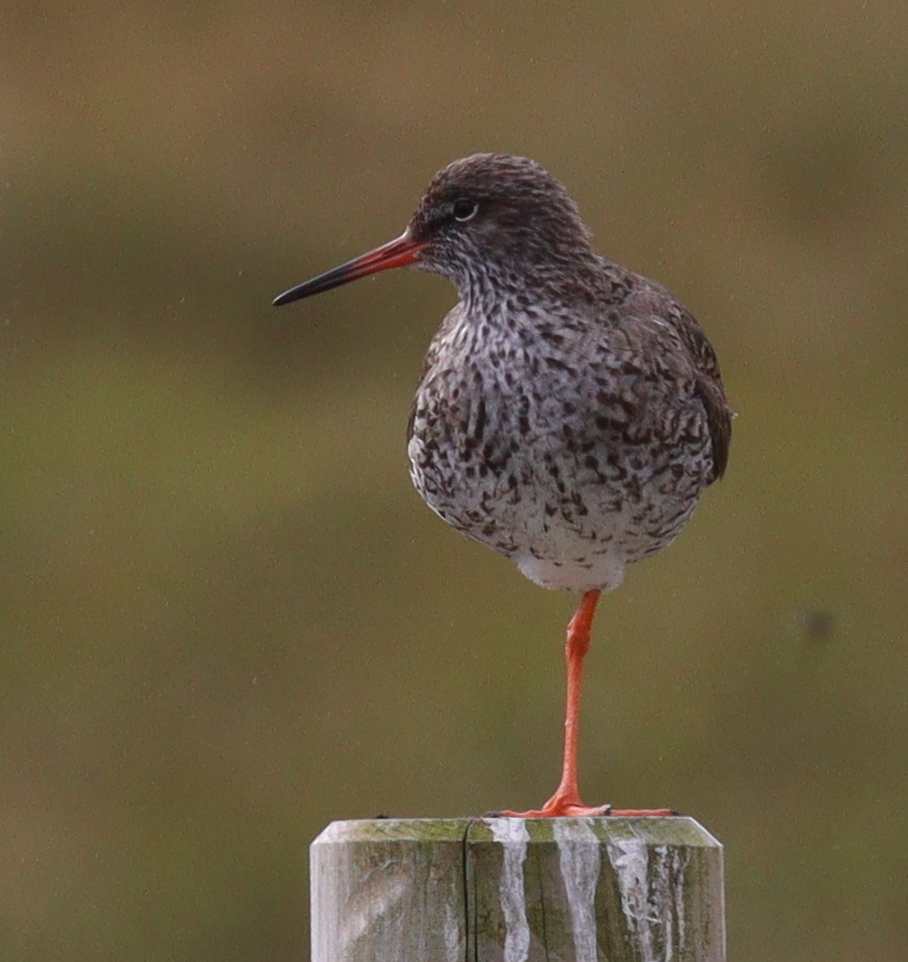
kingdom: Animalia
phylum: Chordata
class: Aves
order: Charadriiformes
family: Scolopacidae
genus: Tringa
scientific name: Tringa totanus
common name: Common redshank
